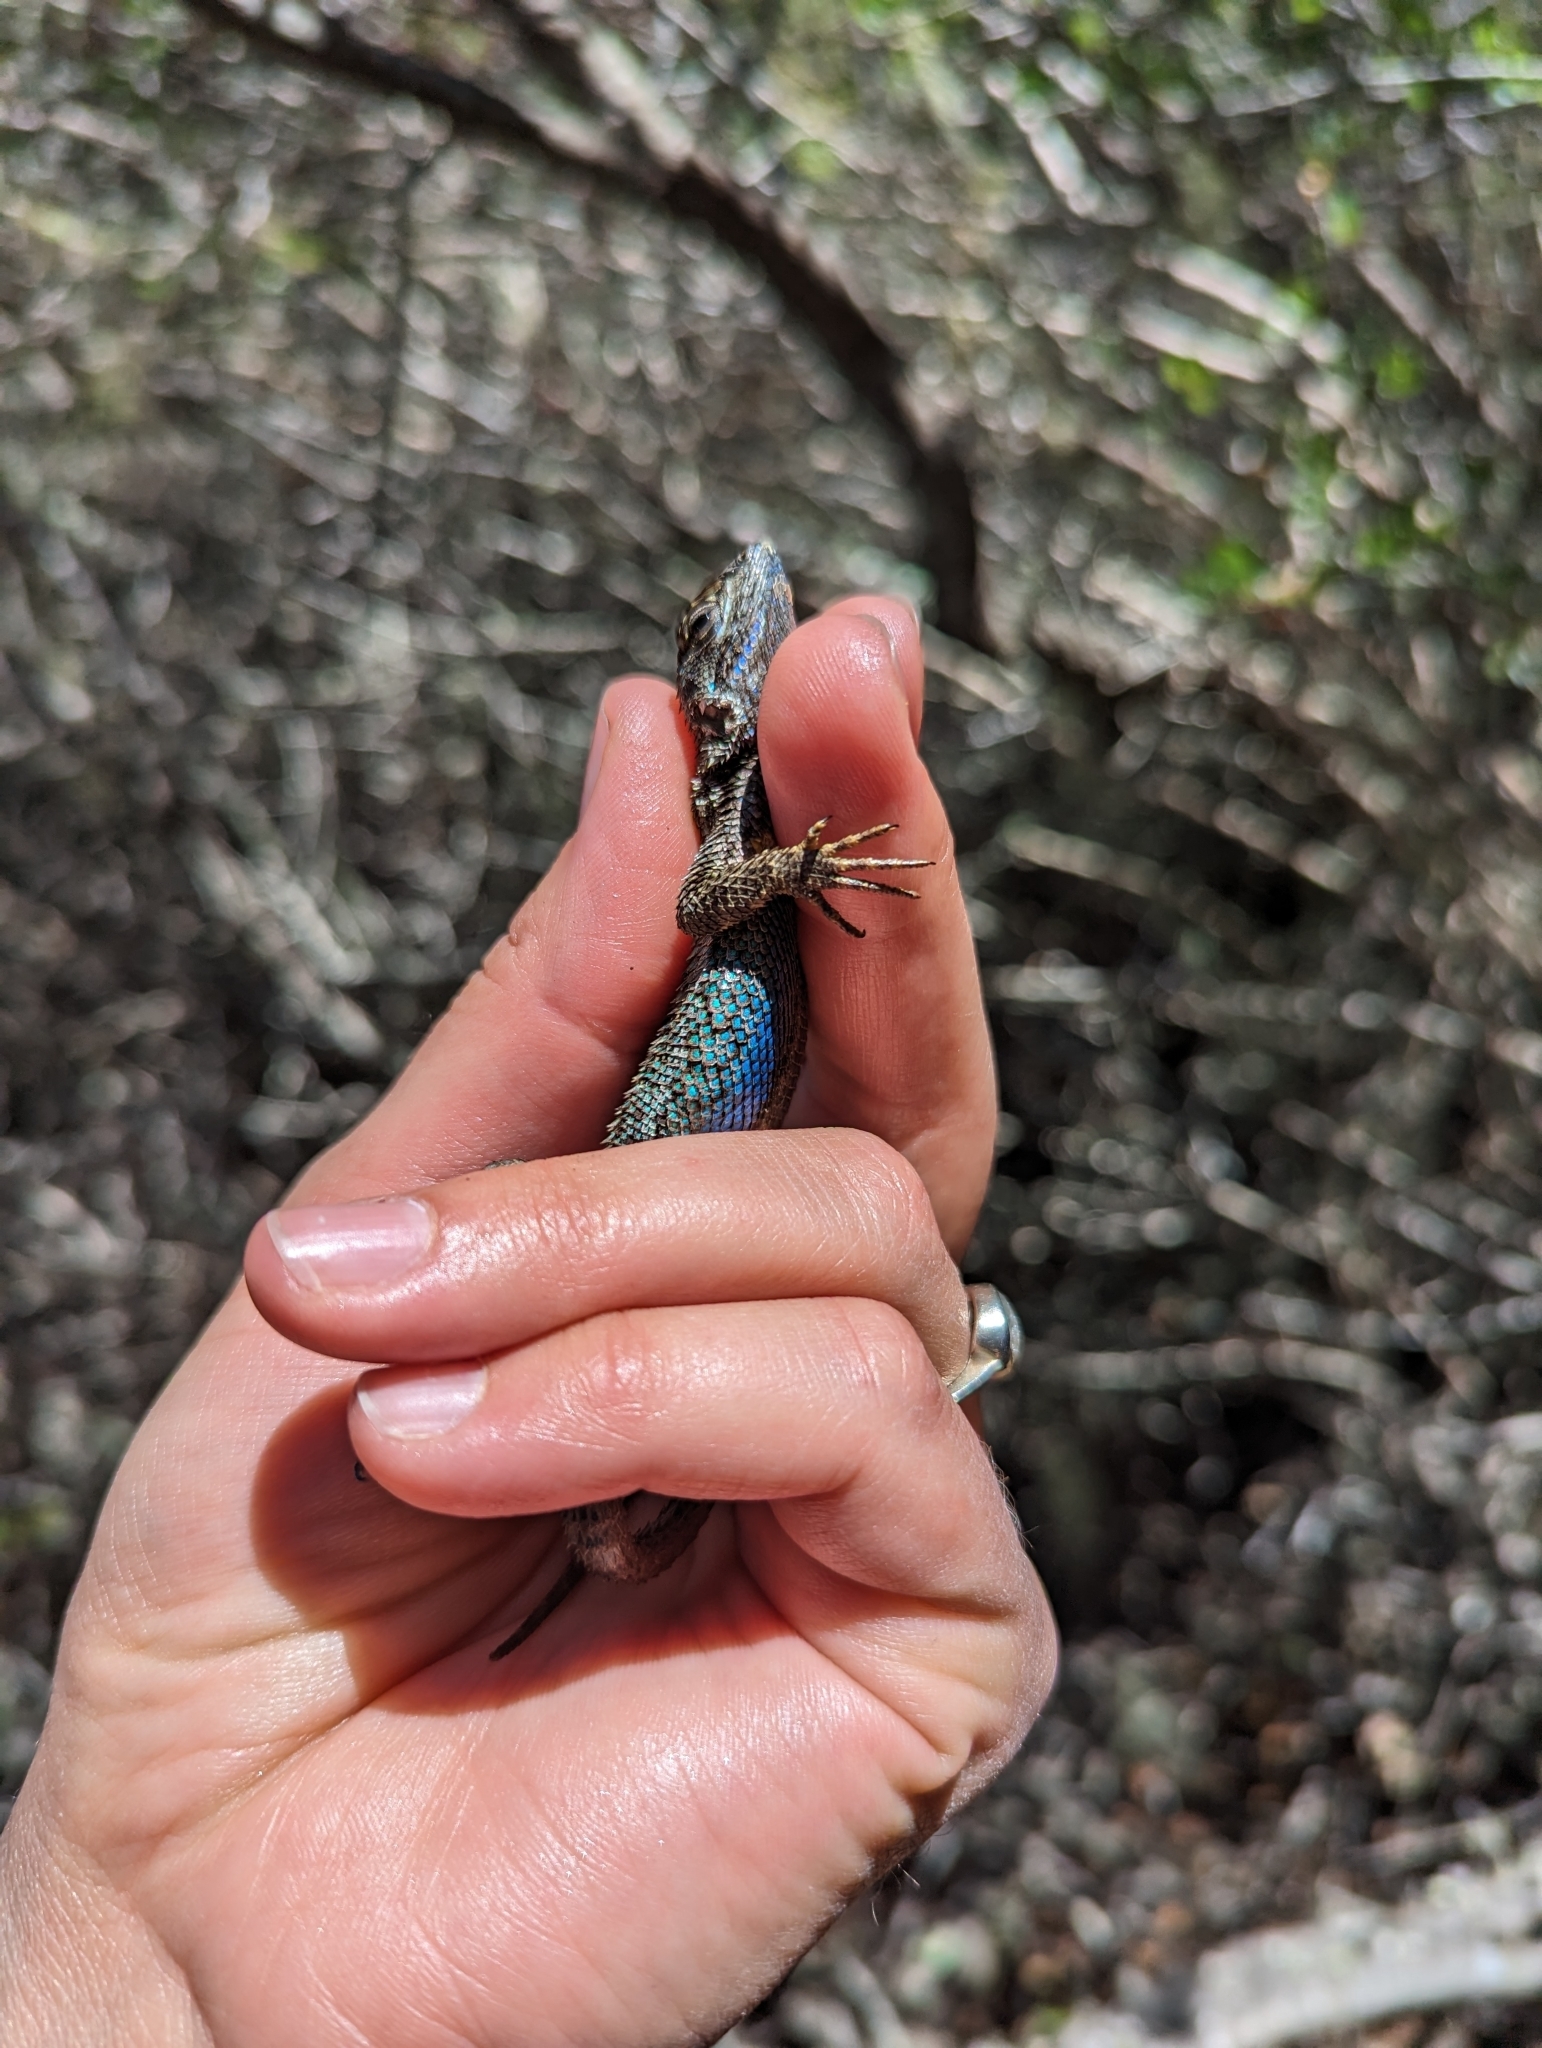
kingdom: Animalia
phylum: Chordata
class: Squamata
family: Phrynosomatidae
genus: Sceloporus
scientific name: Sceloporus occidentalis
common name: Western fence lizard
